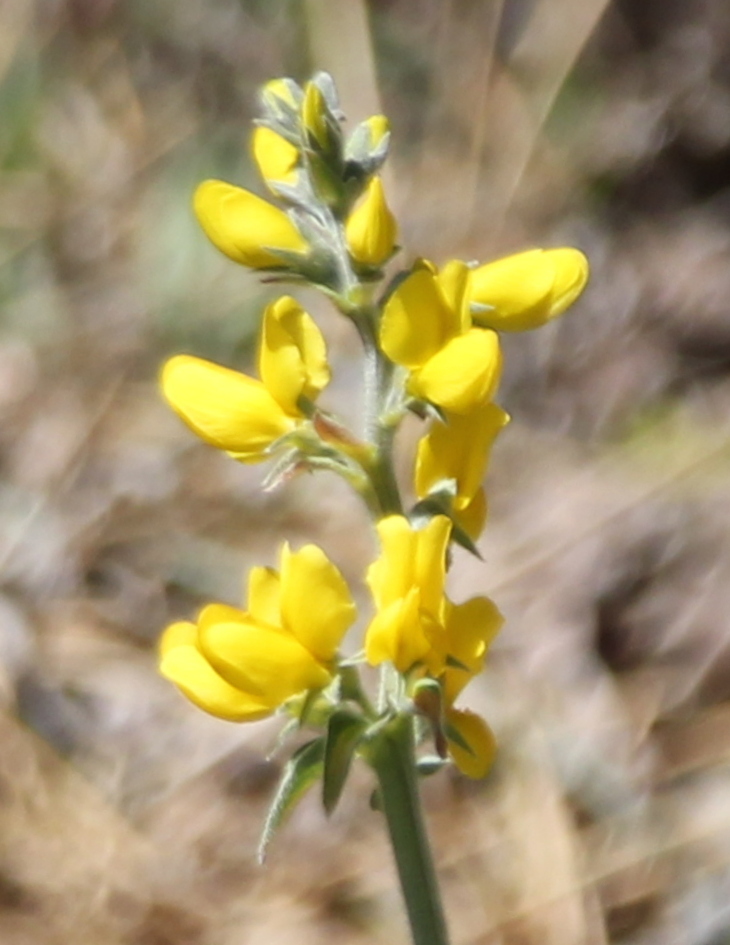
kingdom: Plantae
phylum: Tracheophyta
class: Magnoliopsida
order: Fabales
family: Fabaceae
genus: Thermopsis
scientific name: Thermopsis californica
